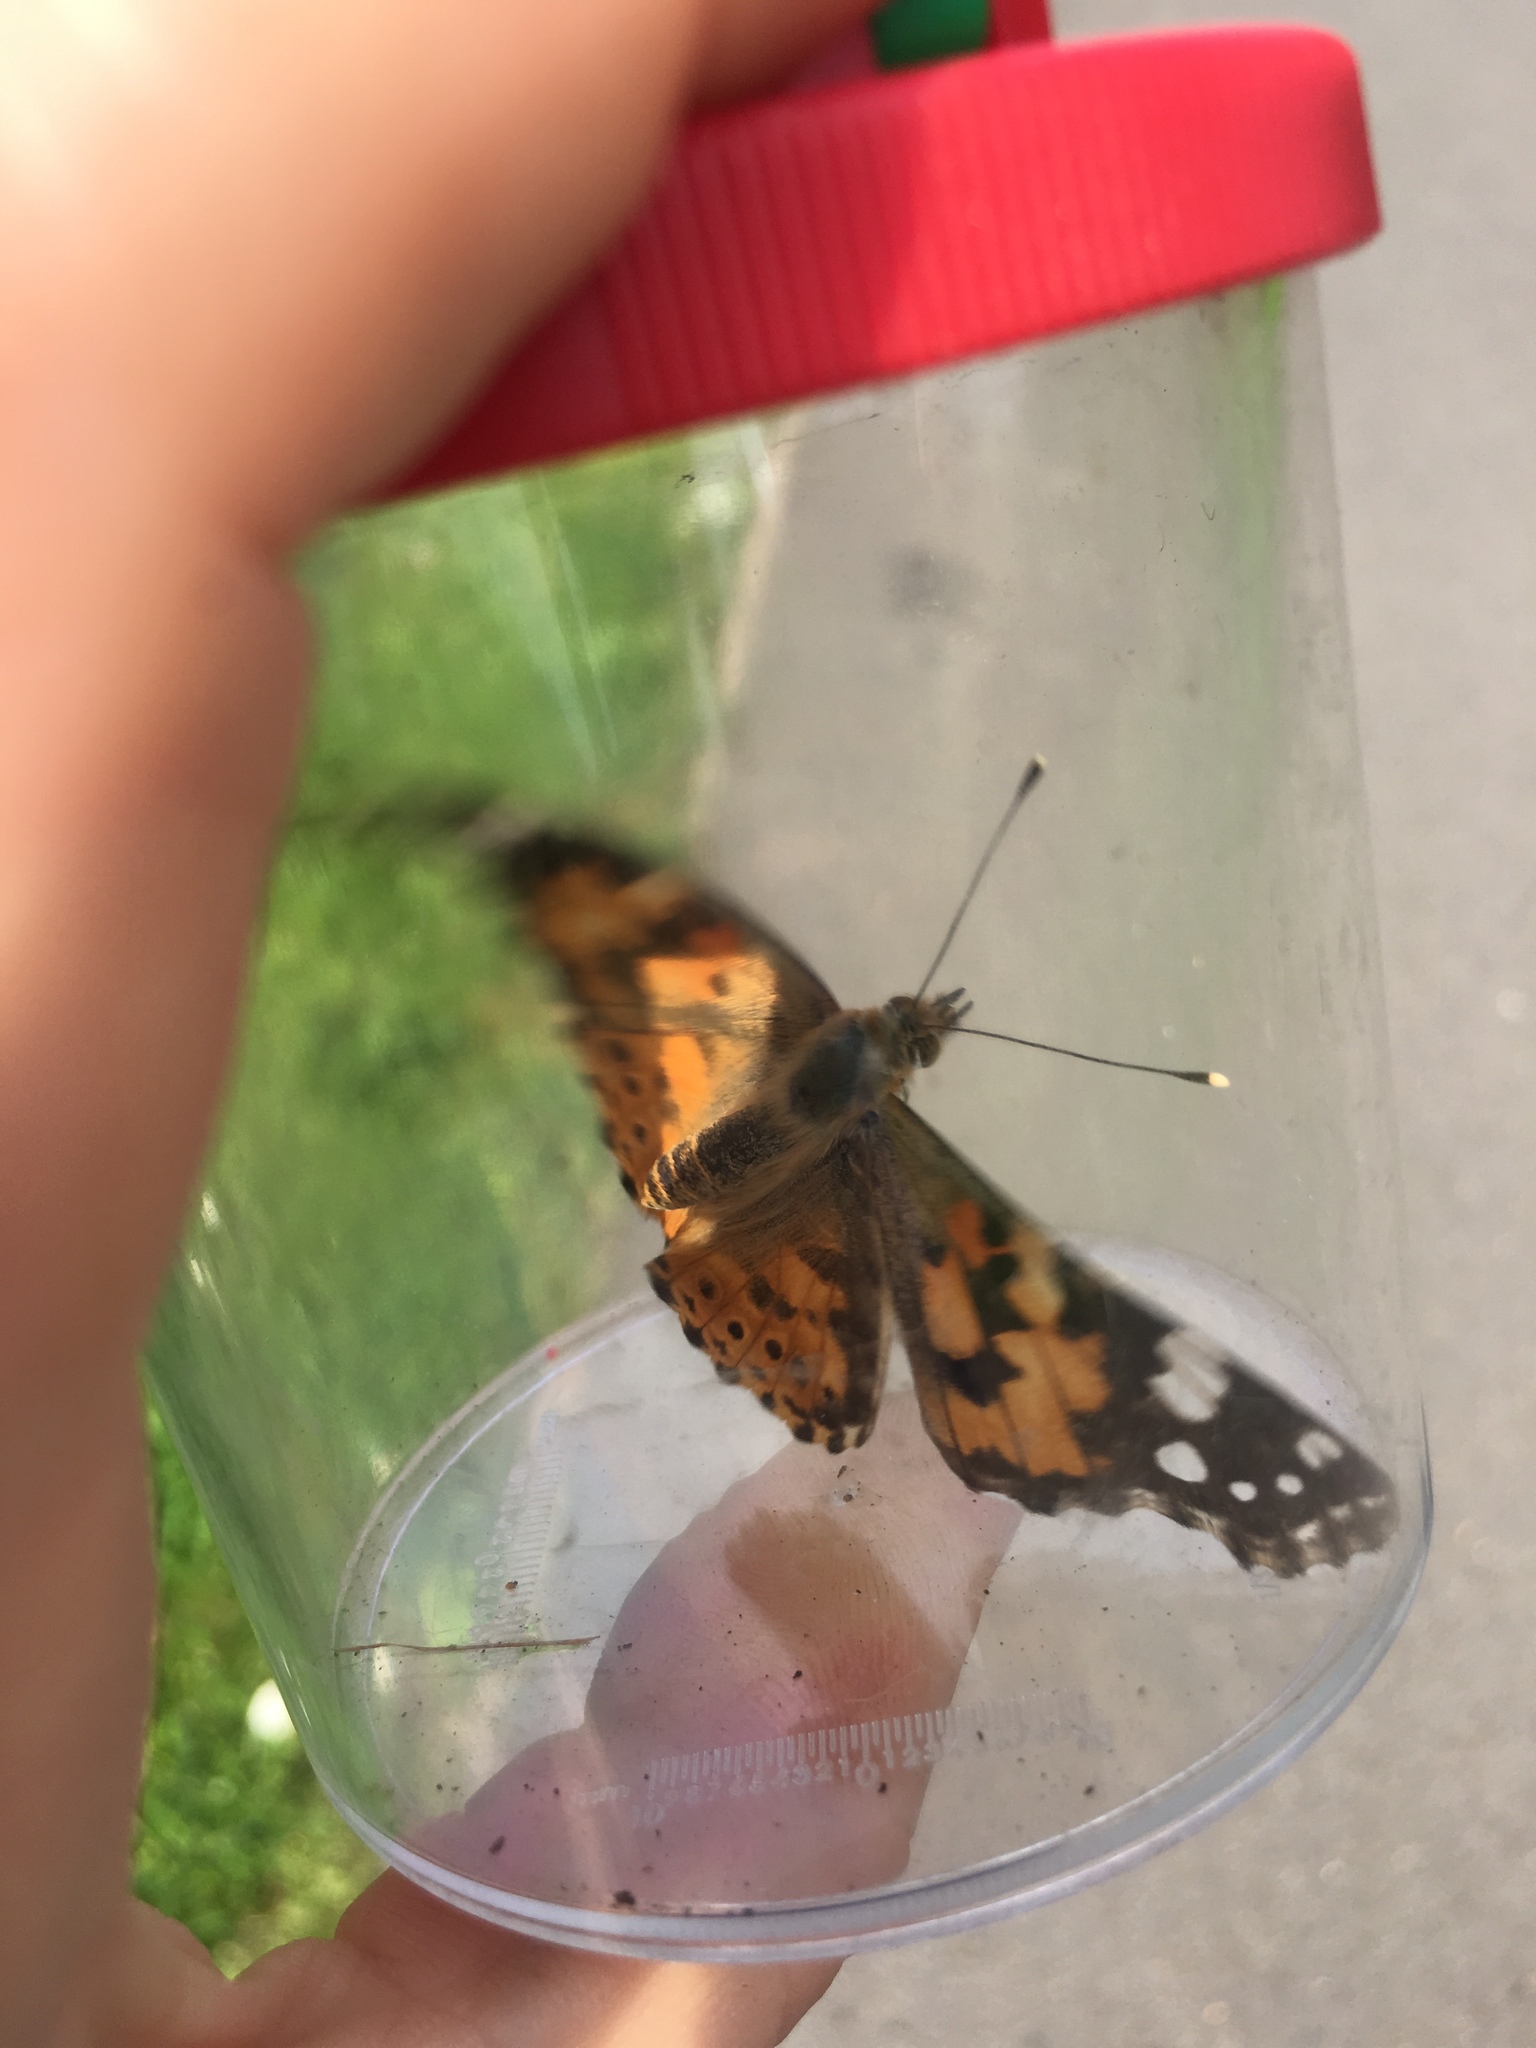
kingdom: Animalia
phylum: Arthropoda
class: Insecta
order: Lepidoptera
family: Nymphalidae
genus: Vanessa
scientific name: Vanessa cardui
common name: Painted lady
